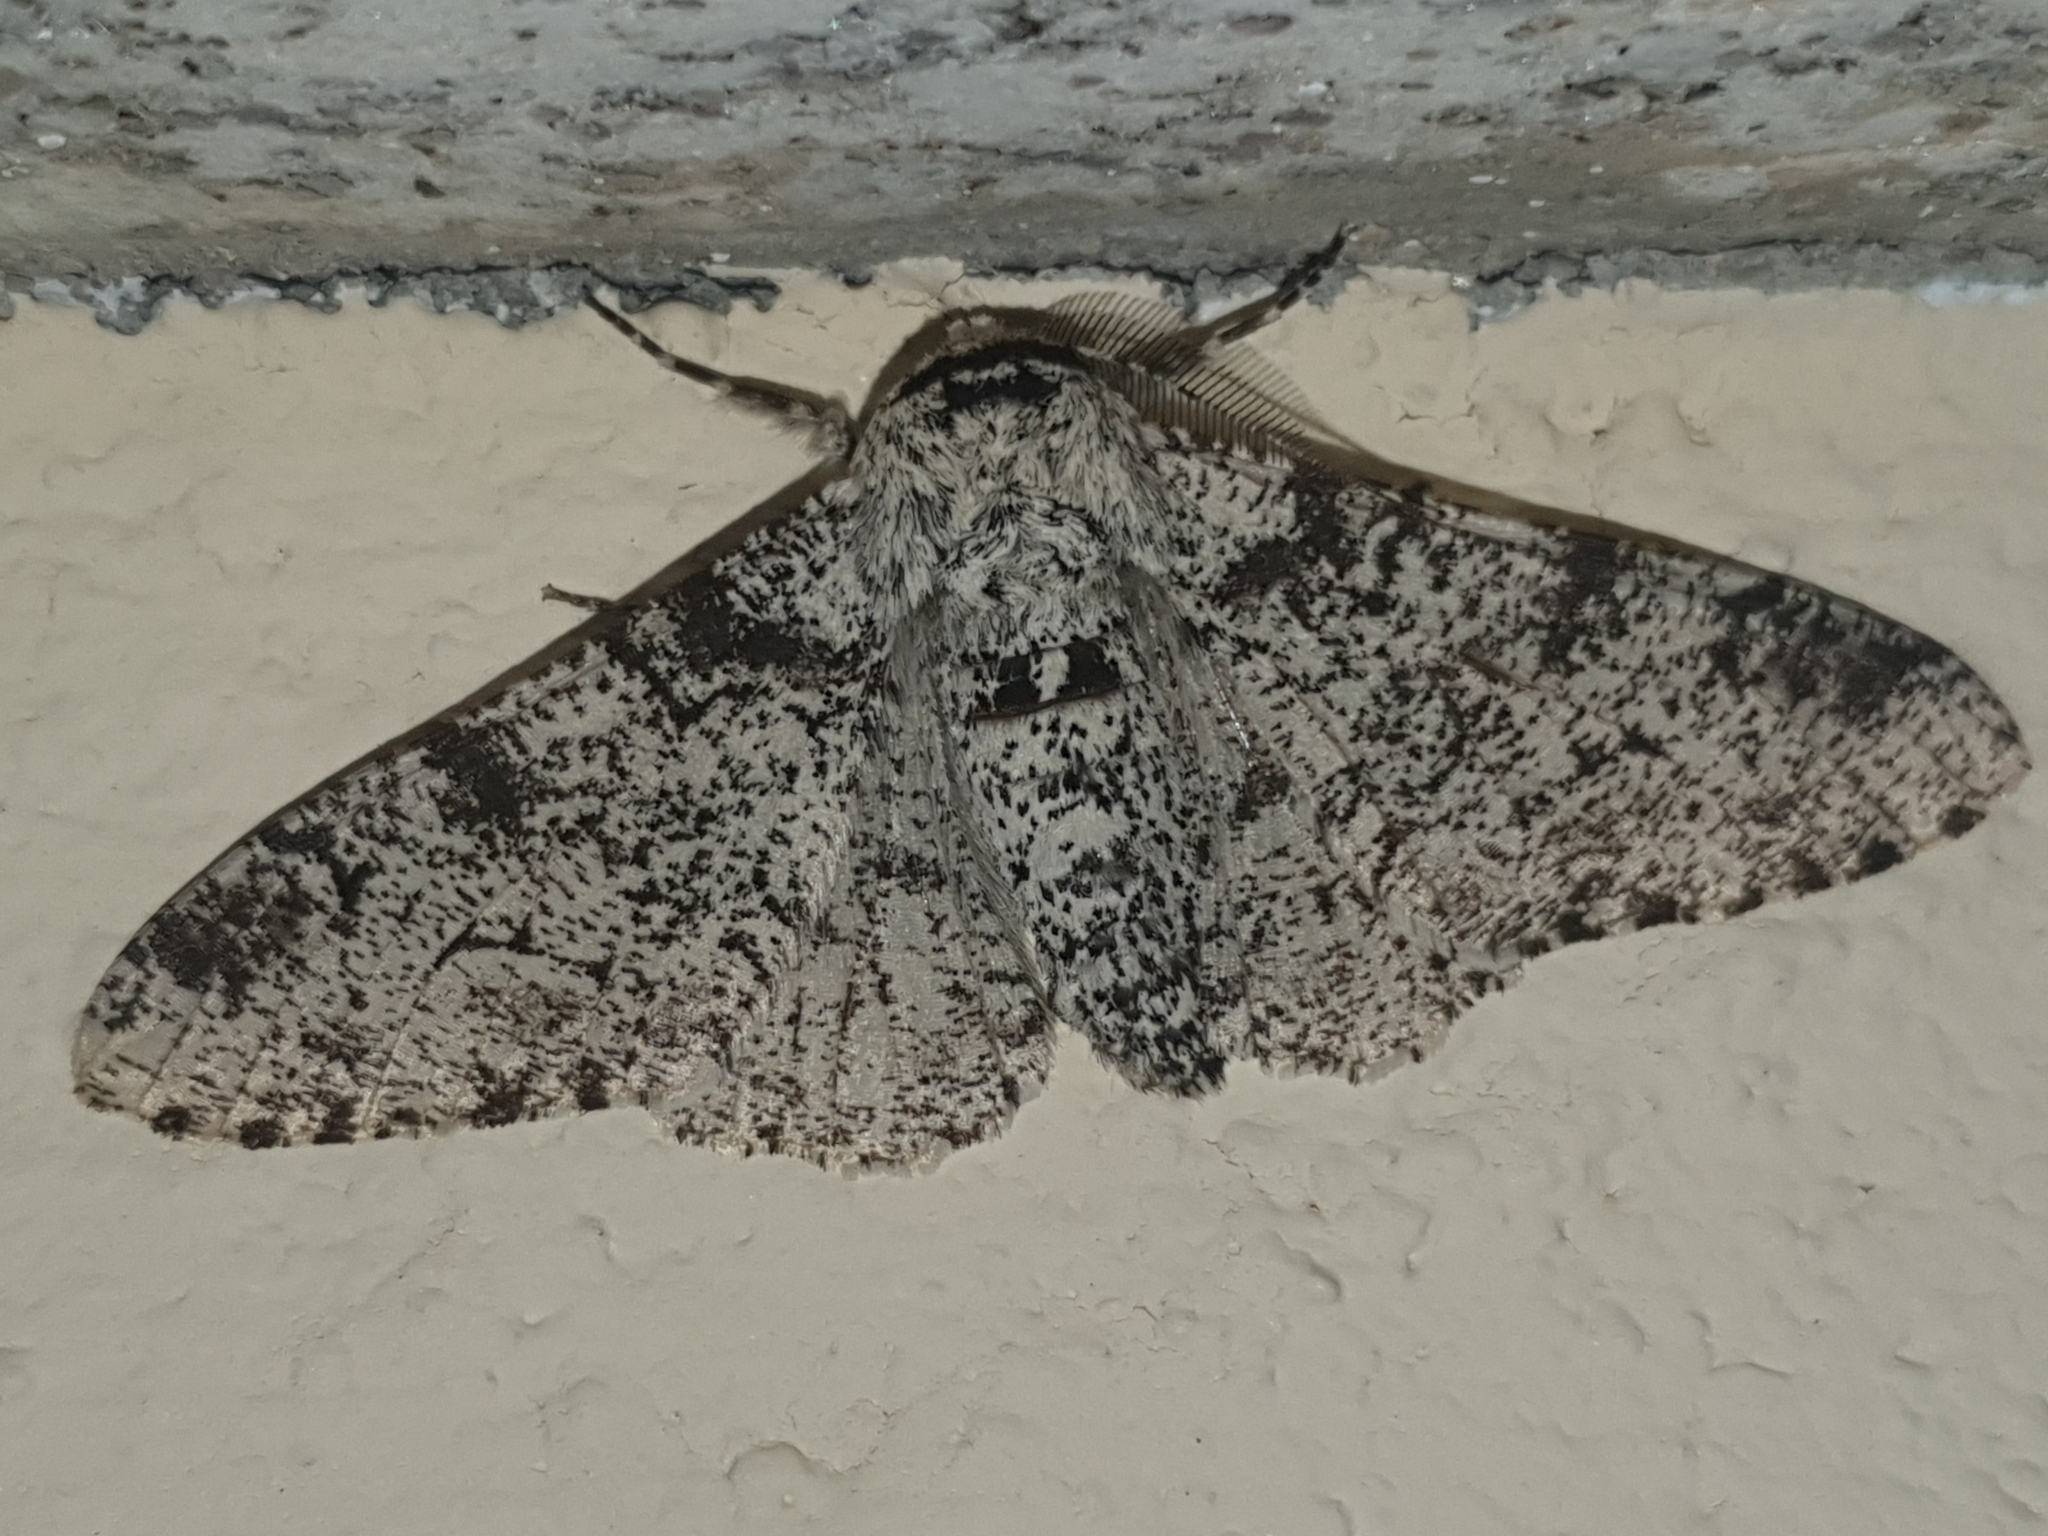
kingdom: Animalia
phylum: Arthropoda
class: Insecta
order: Lepidoptera
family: Geometridae
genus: Biston
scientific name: Biston betularia
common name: Peppered moth
